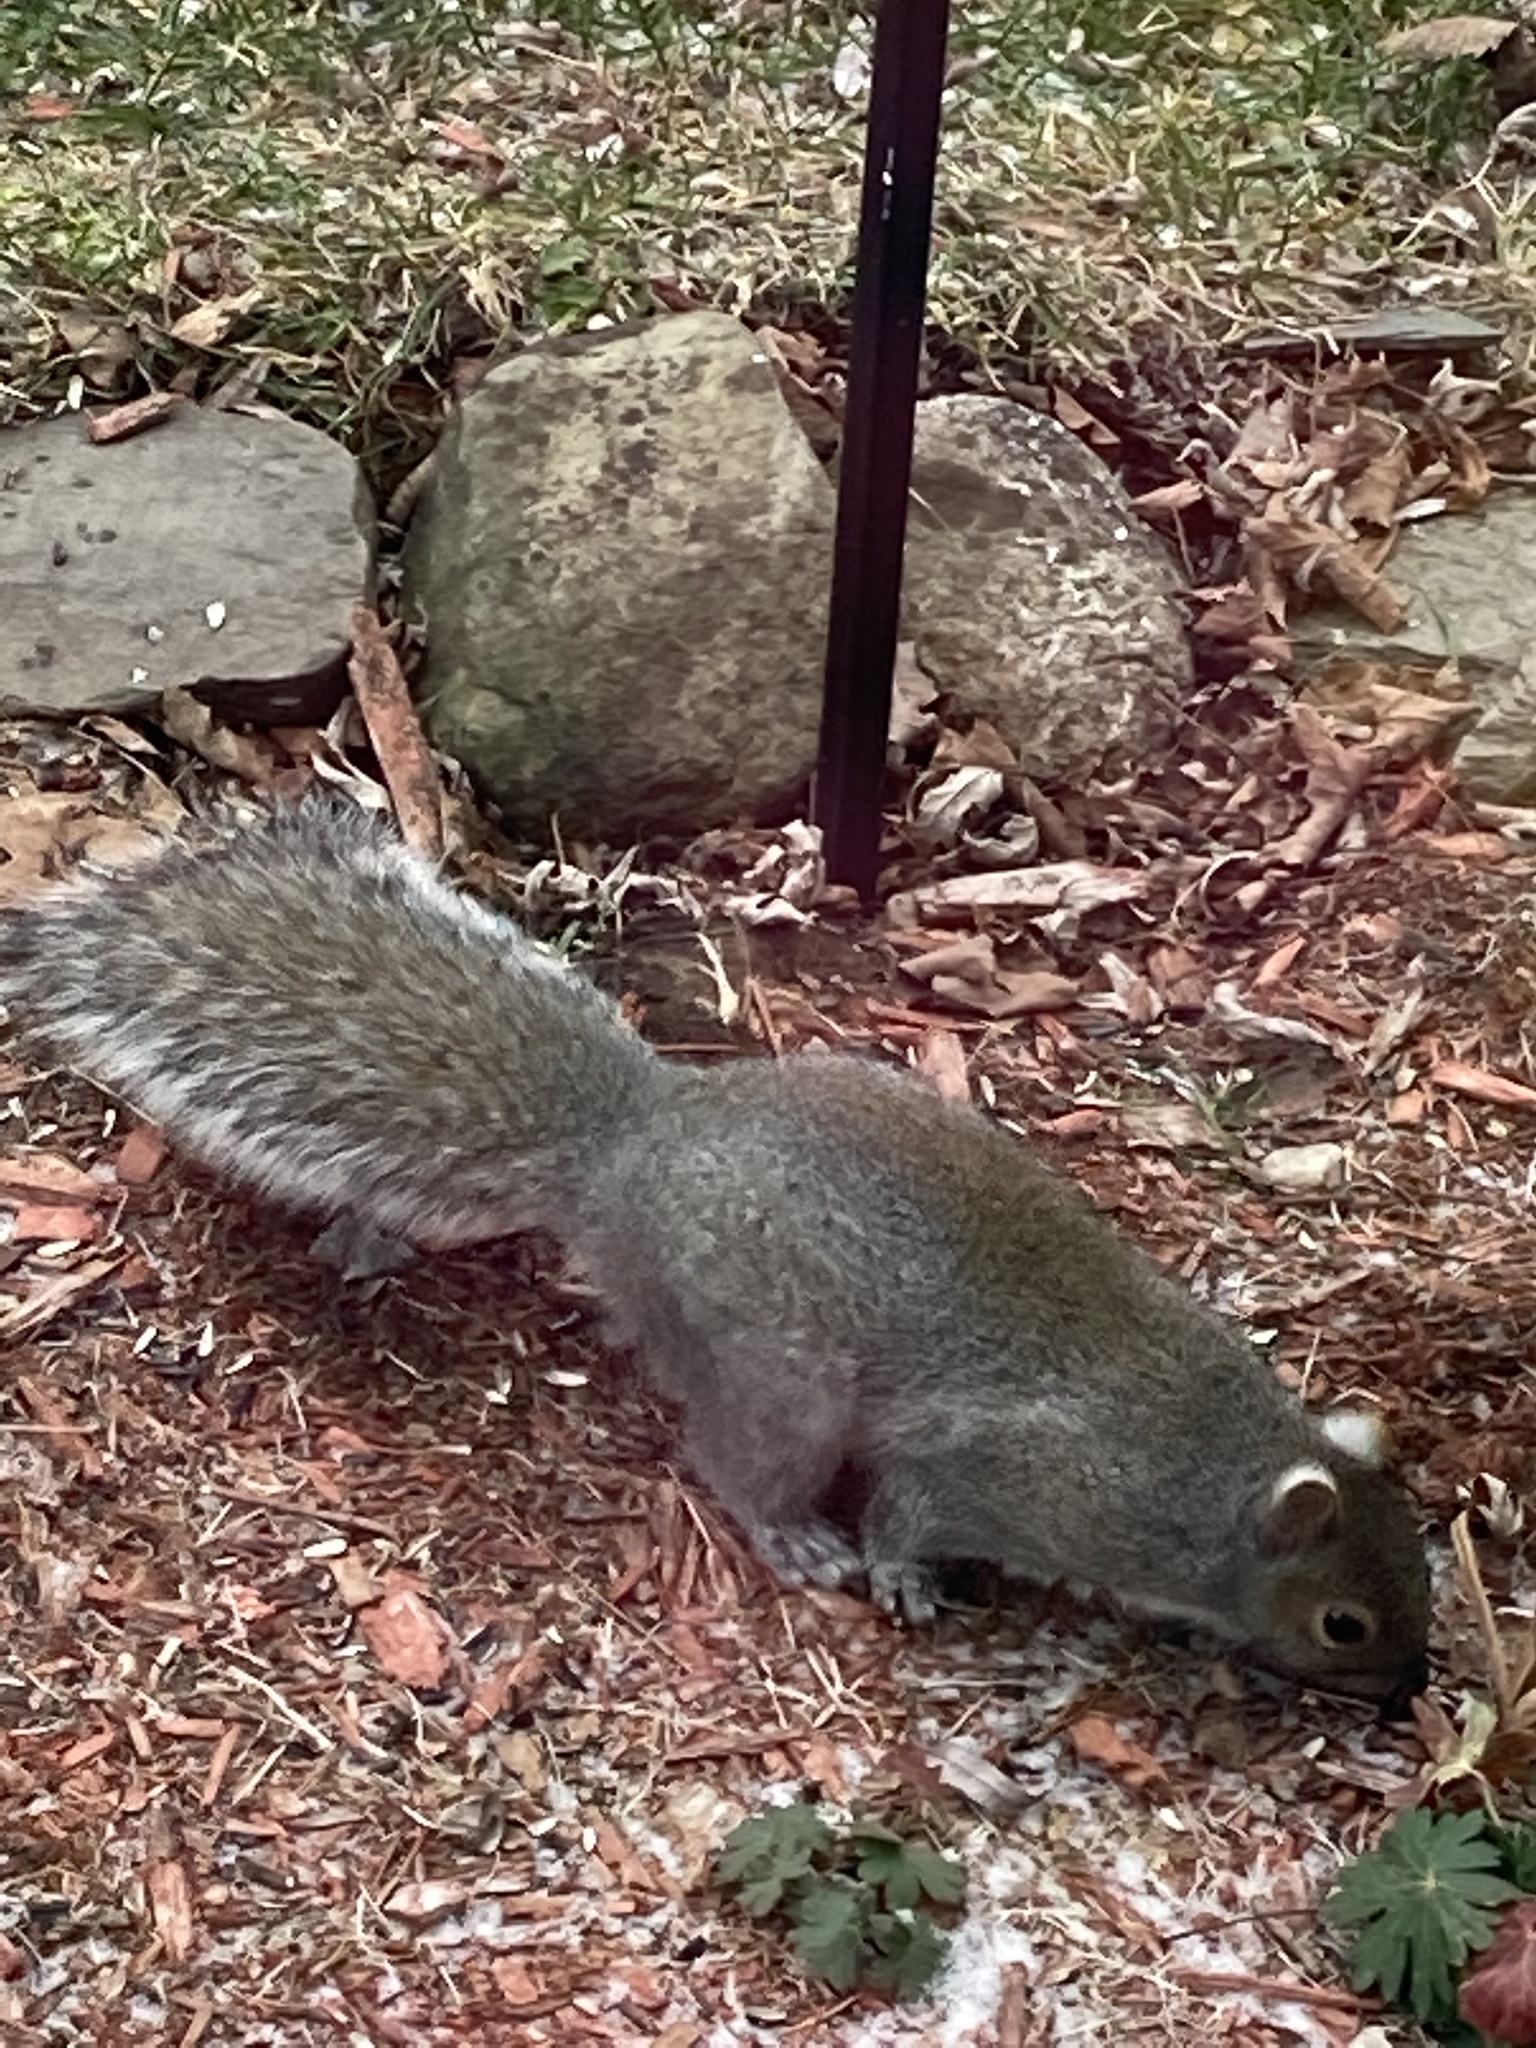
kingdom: Animalia
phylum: Chordata
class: Mammalia
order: Rodentia
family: Sciuridae
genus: Sciurus
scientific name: Sciurus carolinensis
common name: Eastern gray squirrel
